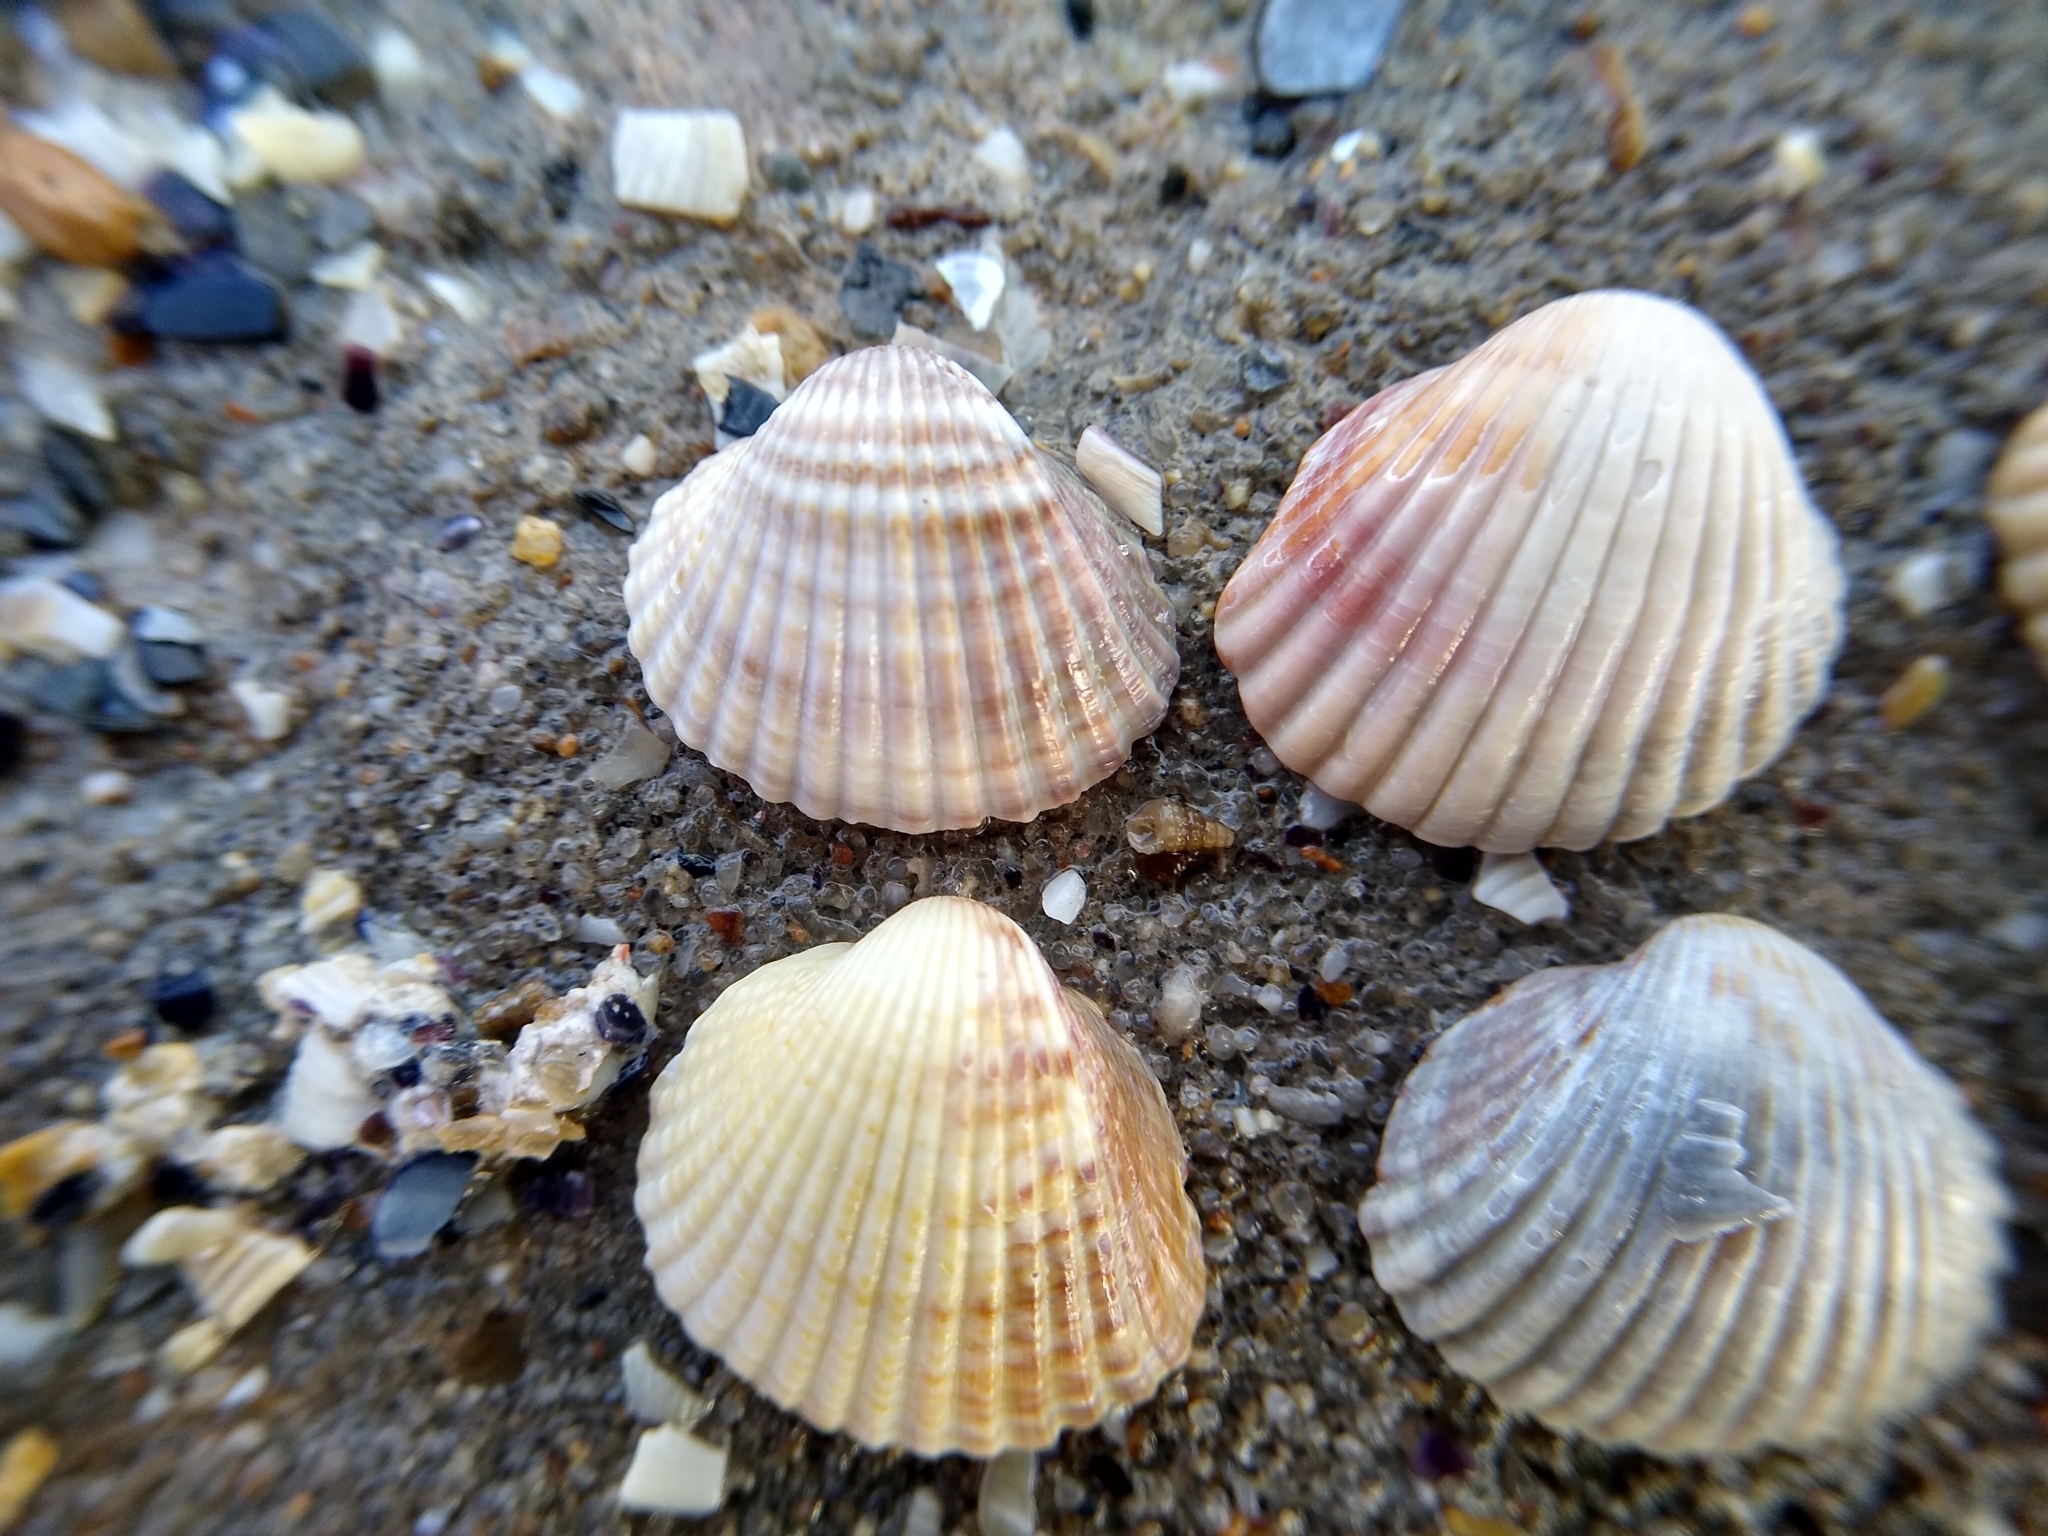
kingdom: Animalia
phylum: Mollusca
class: Bivalvia
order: Cardiida
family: Cardiidae
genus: Cerastoderma
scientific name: Cerastoderma glaucum
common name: Lagoon cockle
